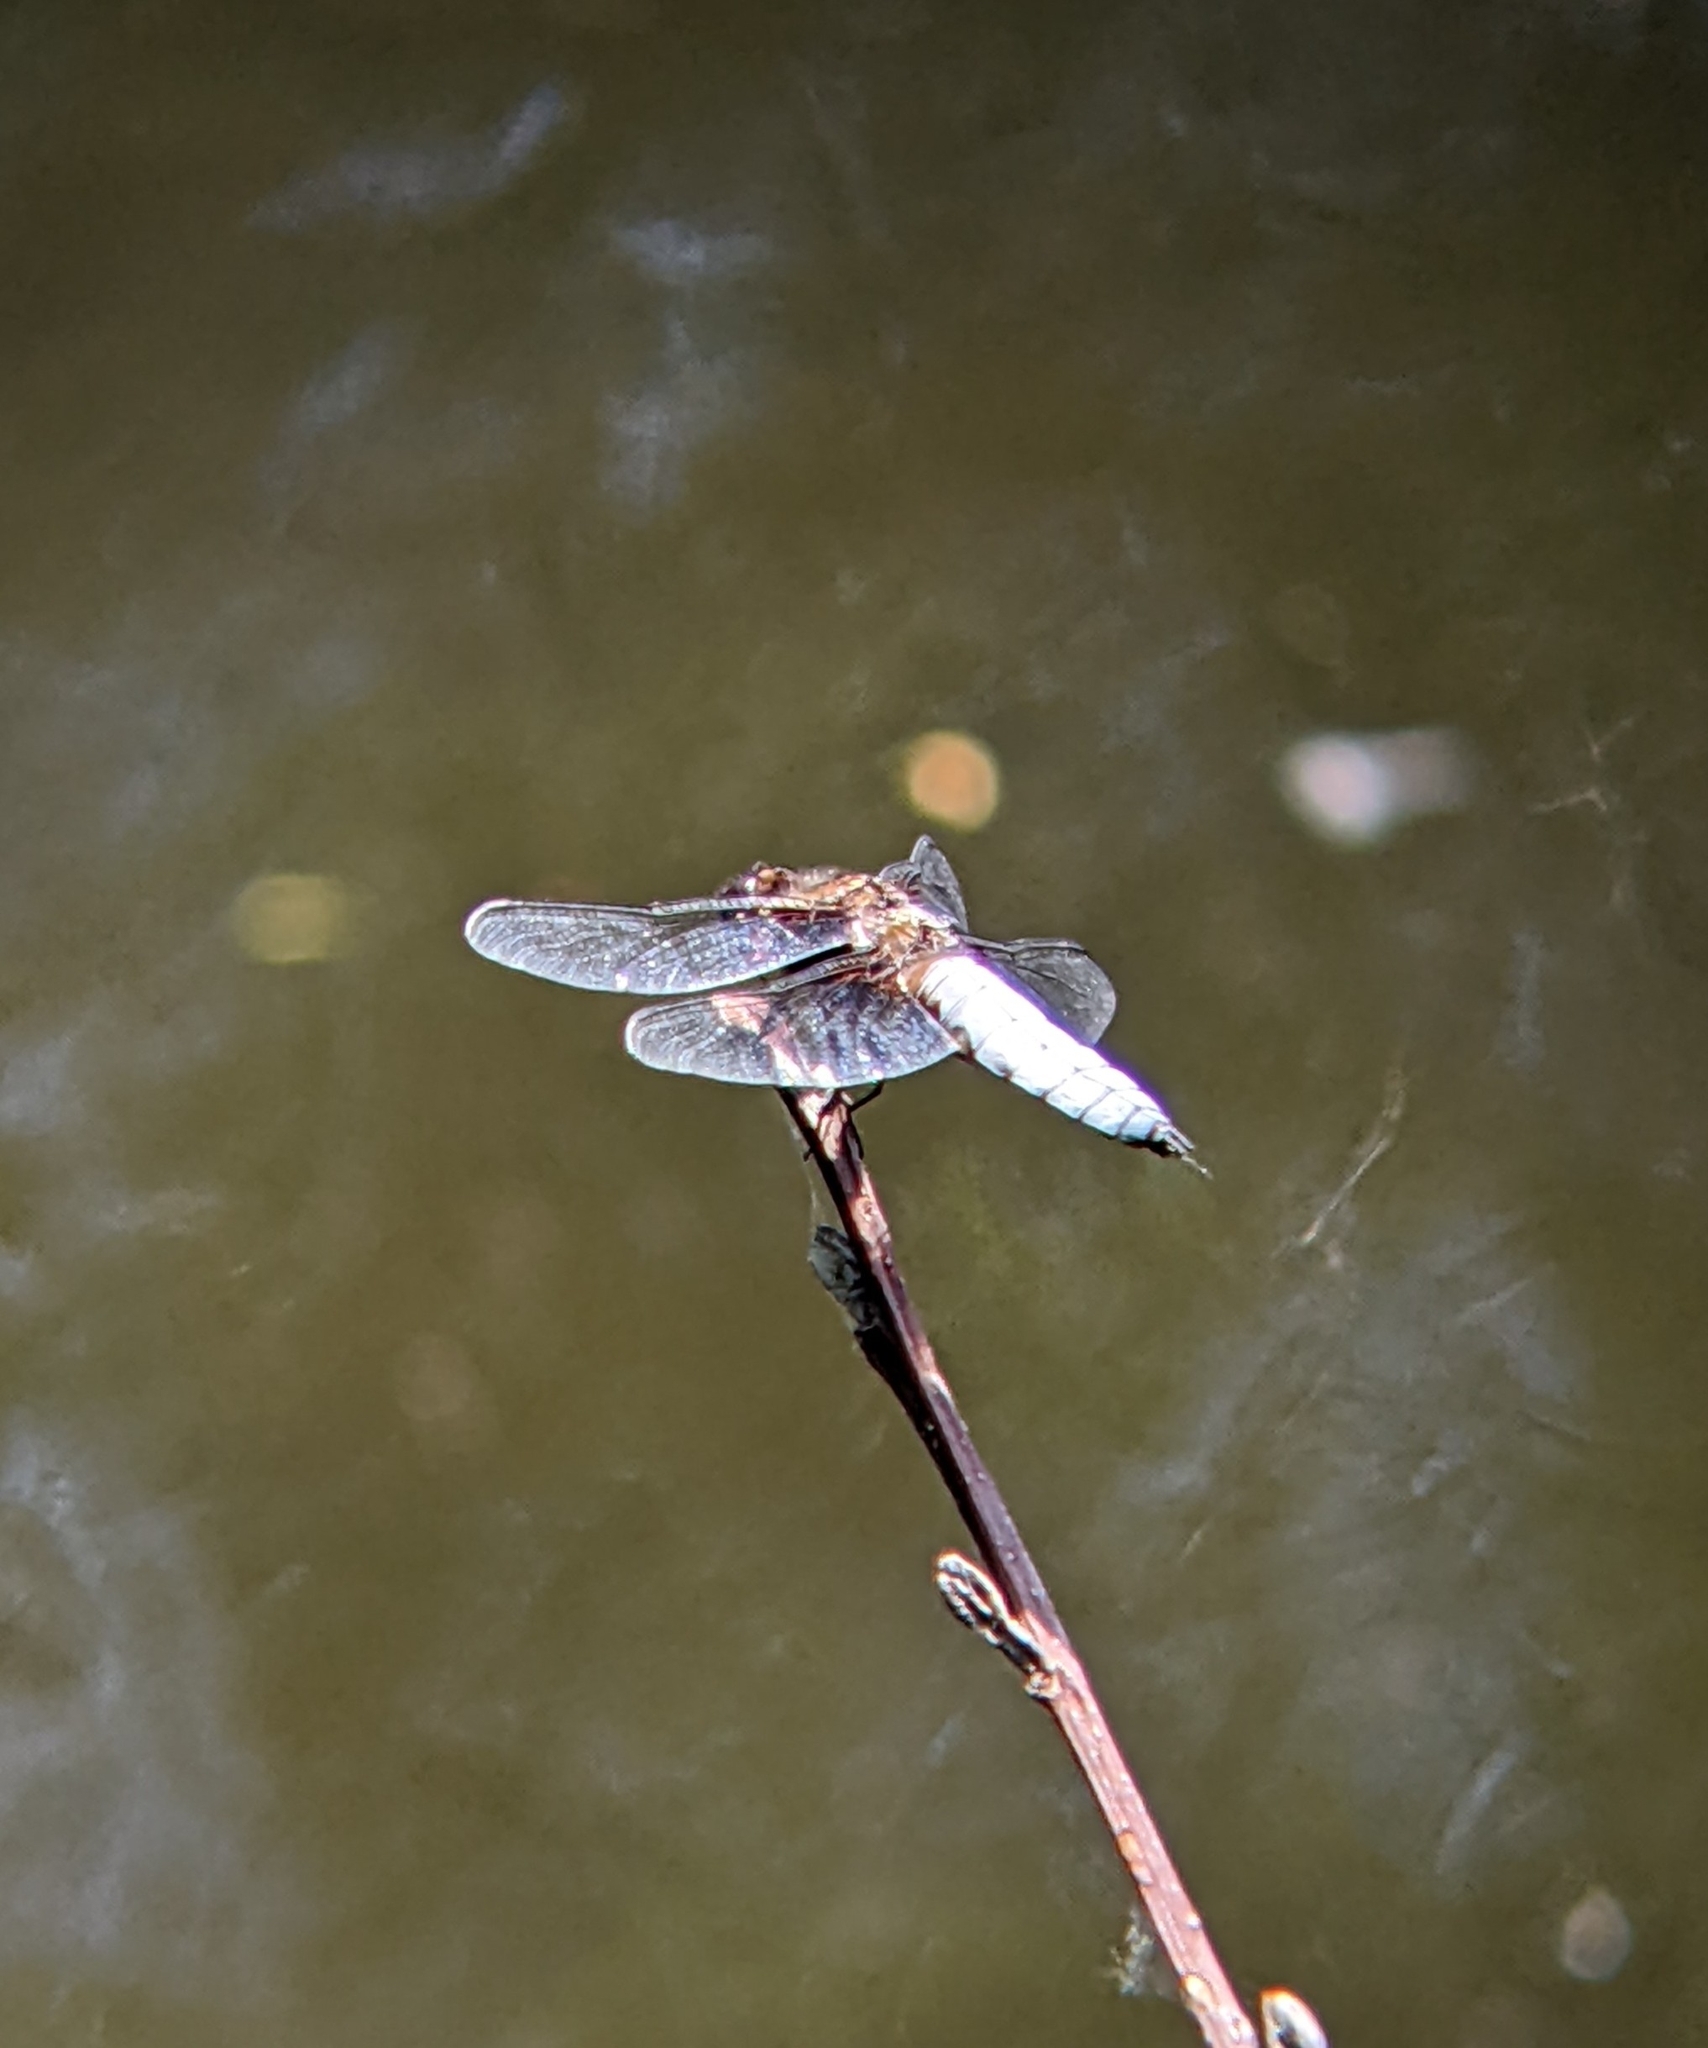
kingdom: Animalia
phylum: Arthropoda
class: Insecta
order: Odonata
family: Libellulidae
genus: Libellula
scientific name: Libellula depressa
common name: Broad-bodied chaser
